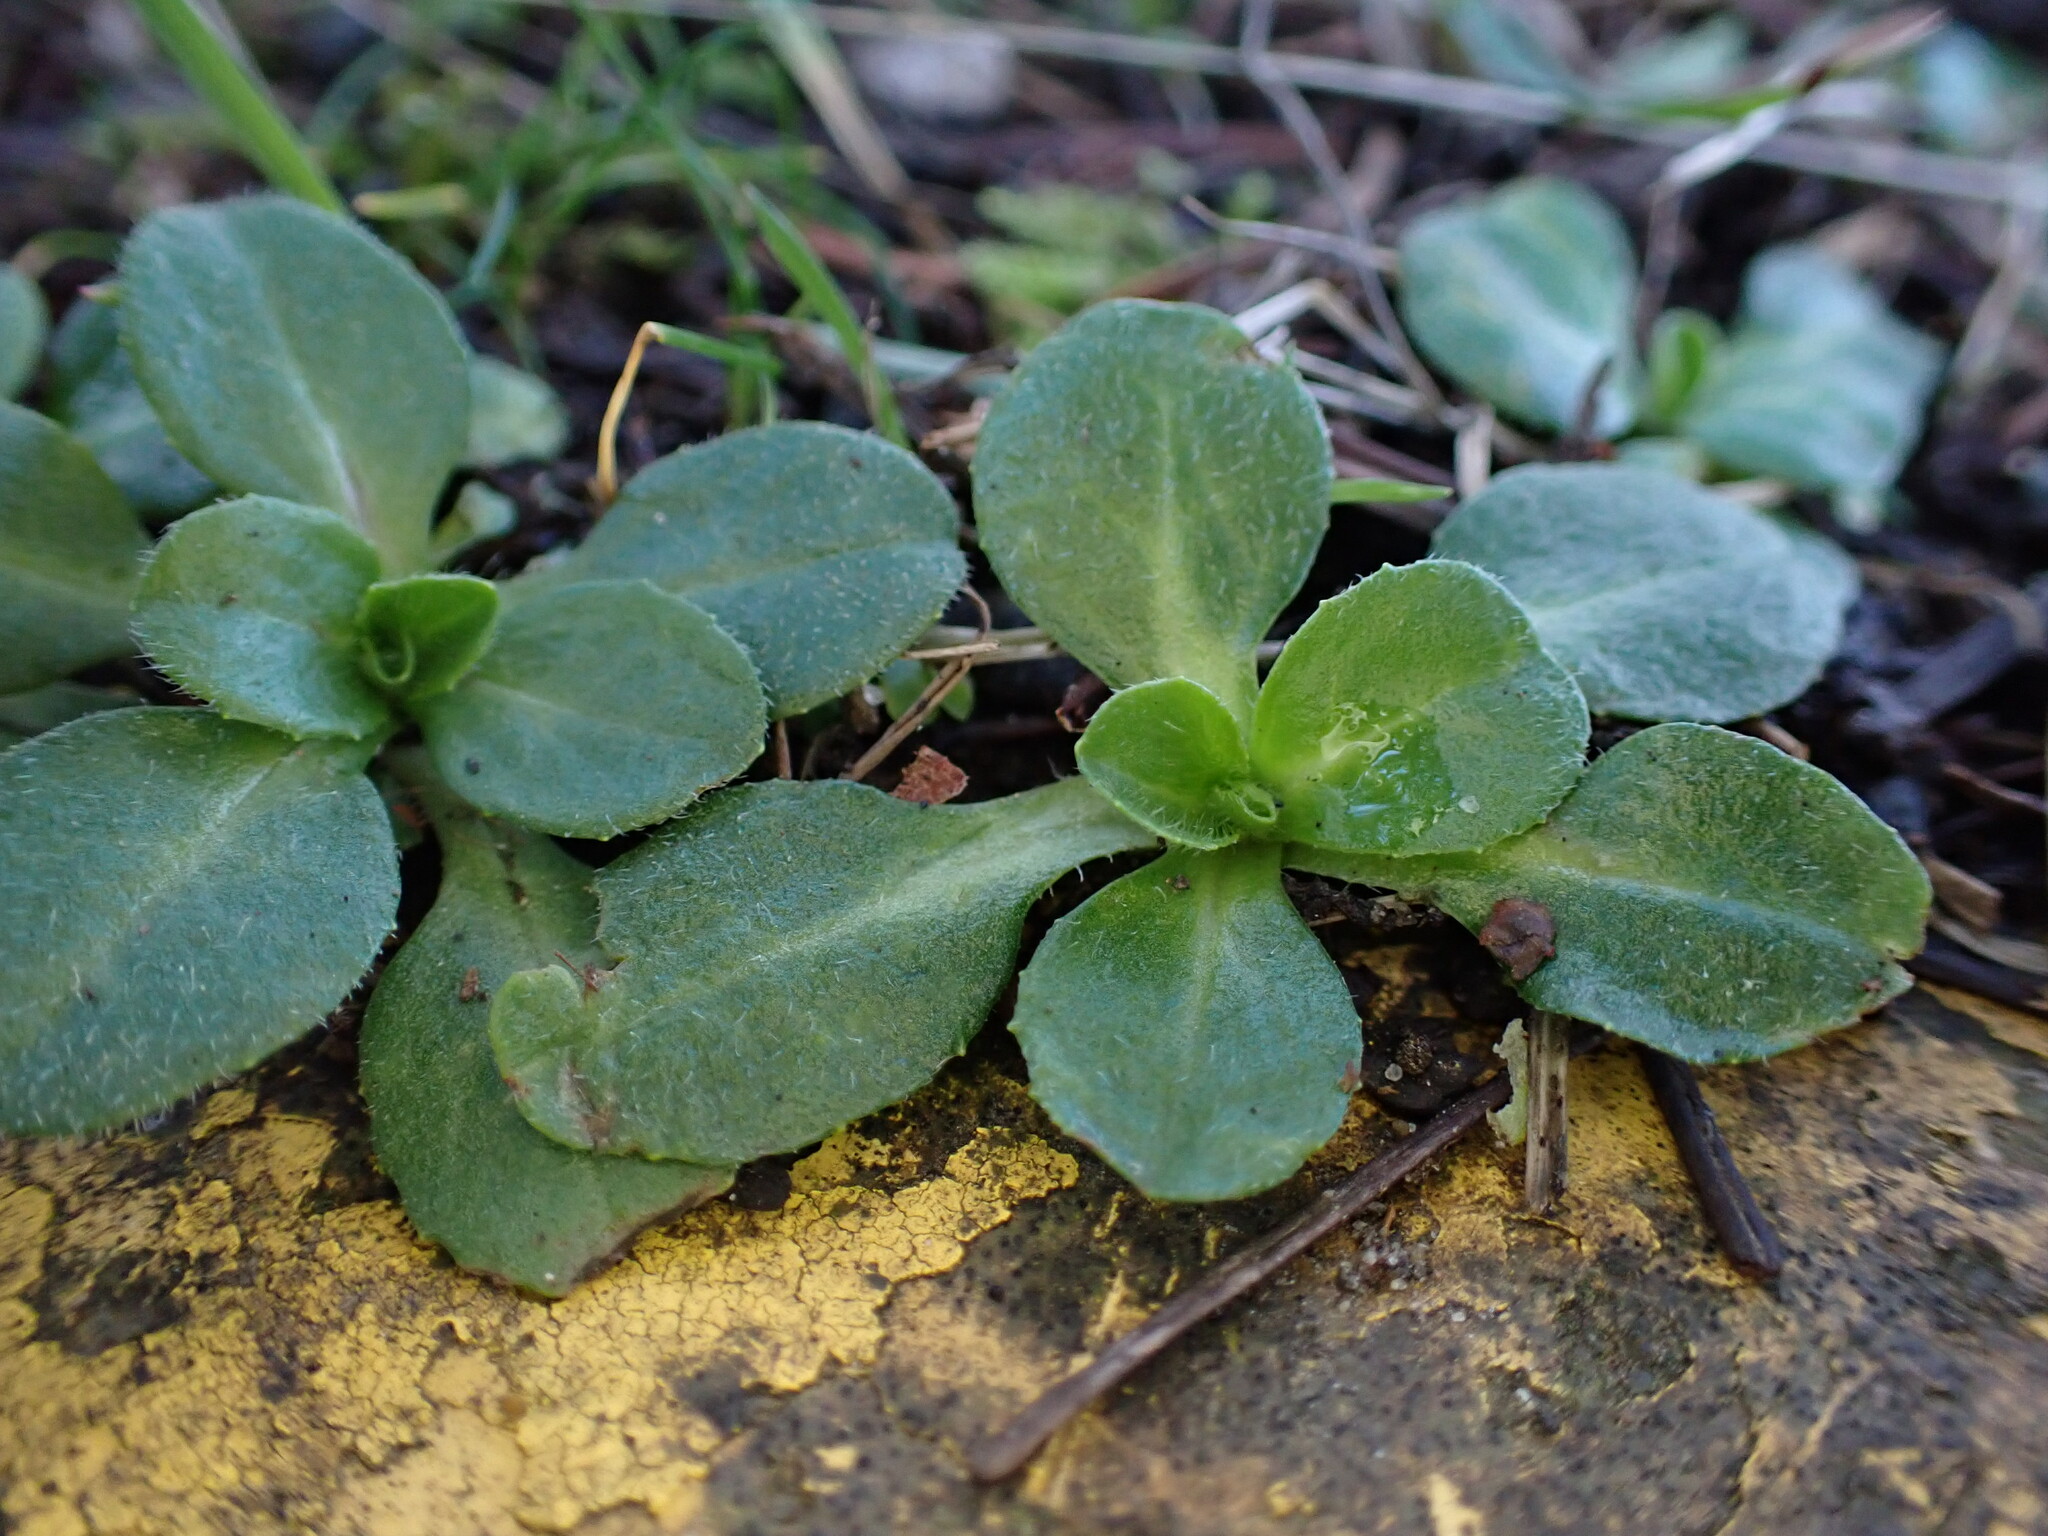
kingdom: Plantae
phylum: Tracheophyta
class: Magnoliopsida
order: Asterales
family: Asteraceae
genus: Bellis
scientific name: Bellis perennis
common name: Lawndaisy
